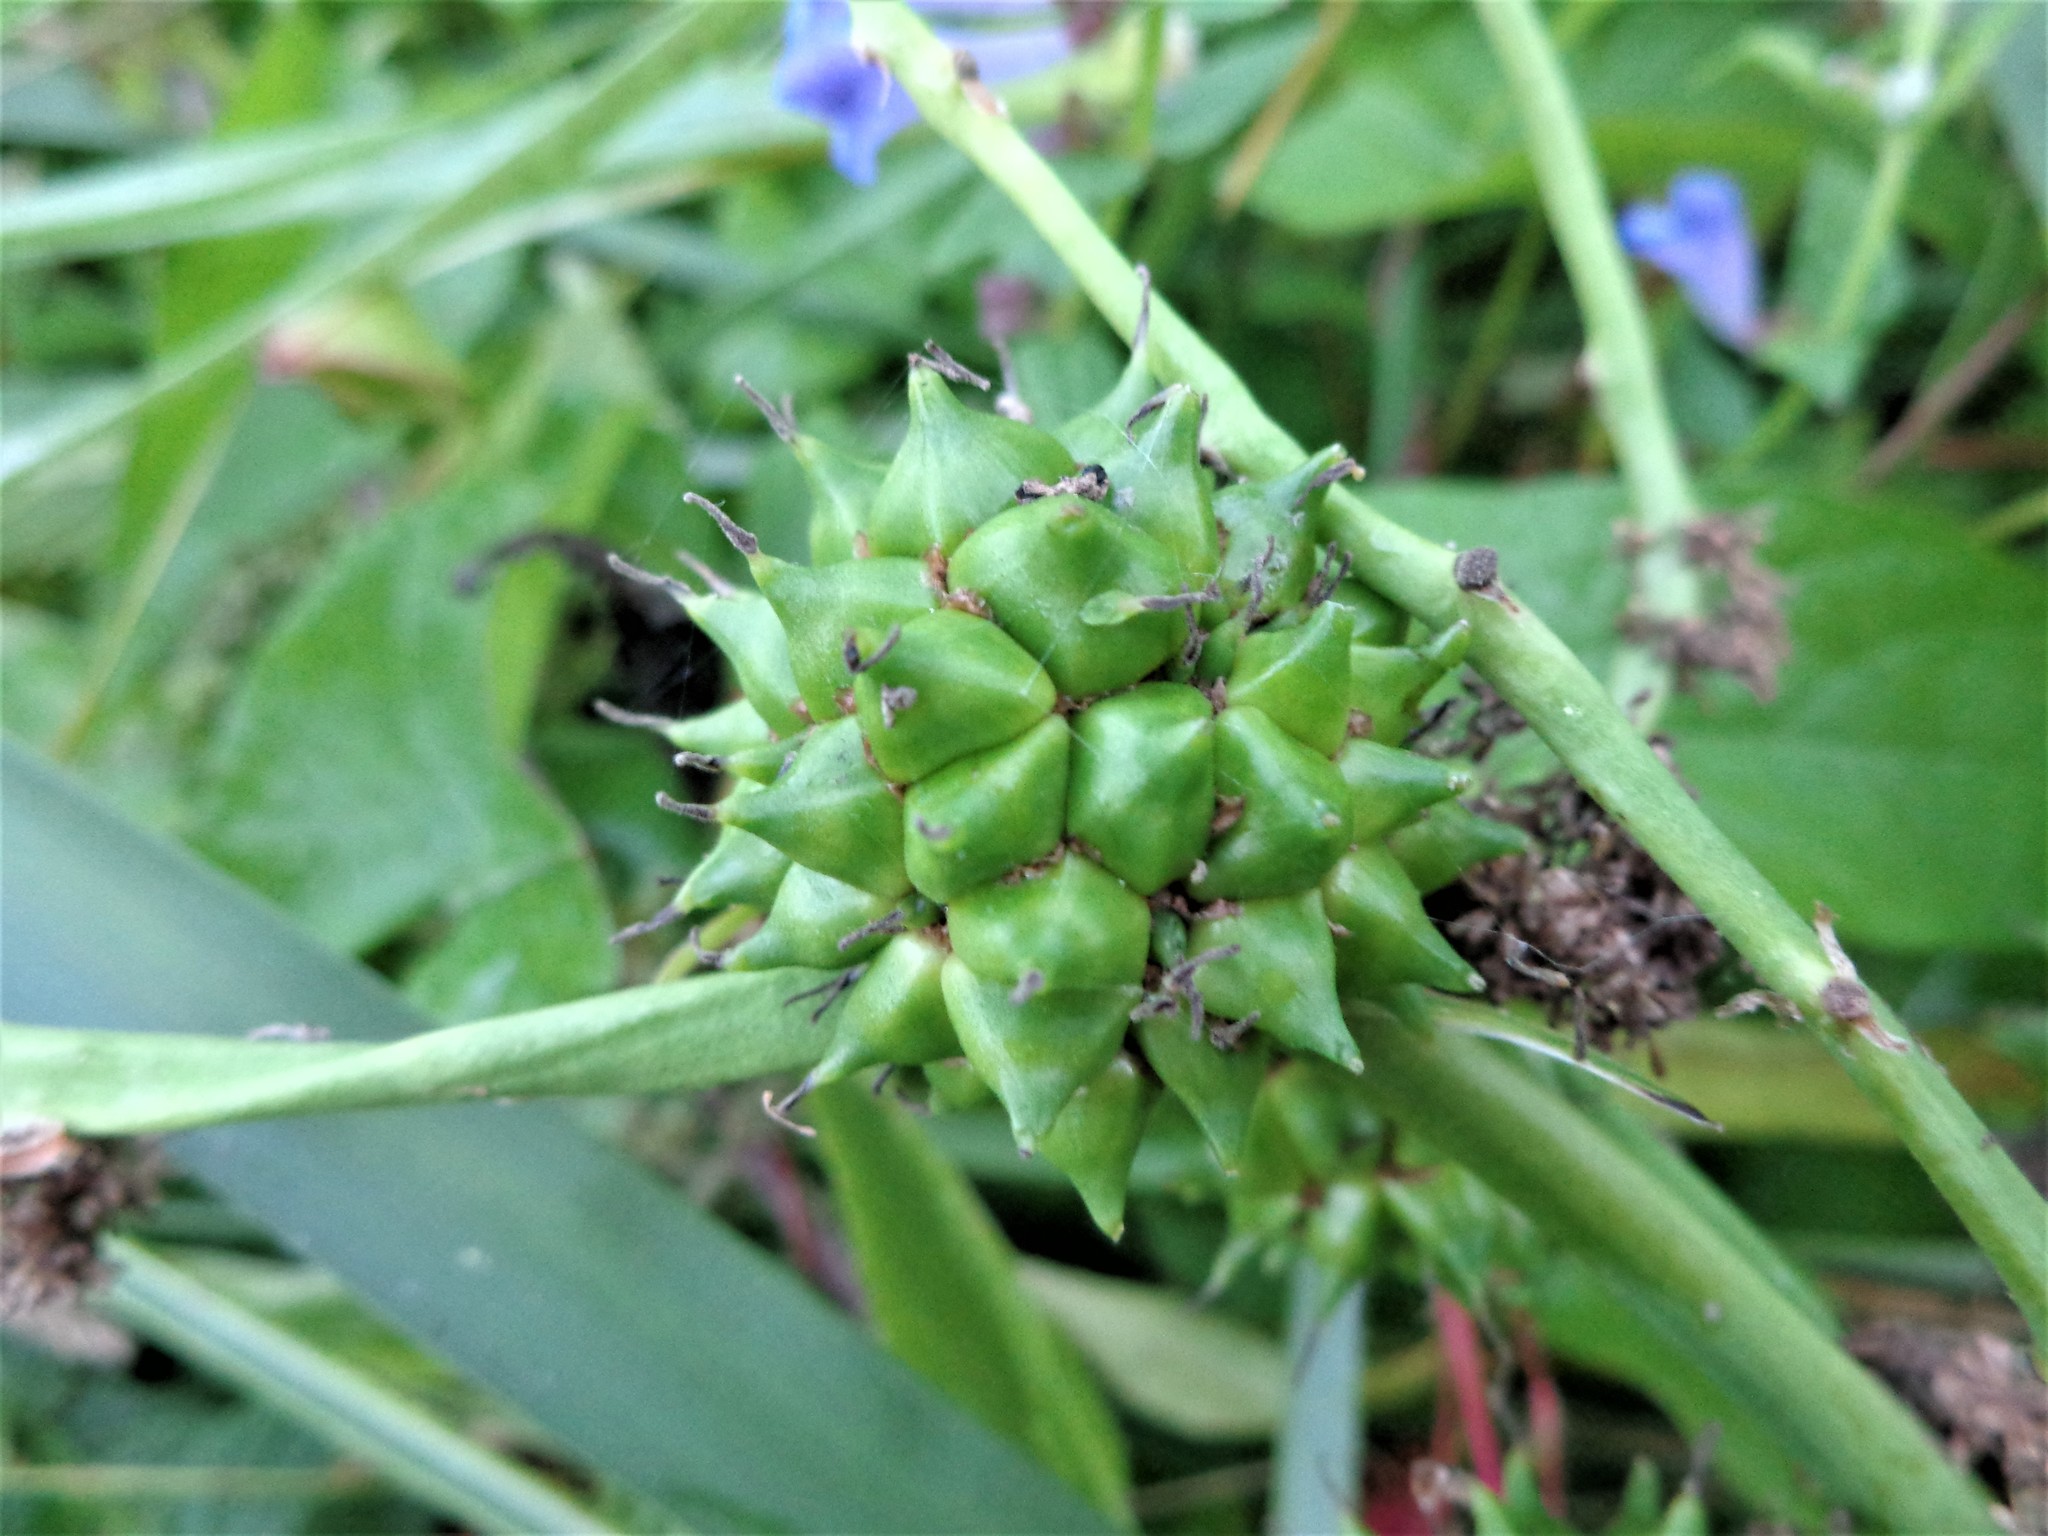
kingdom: Plantae
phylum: Tracheophyta
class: Liliopsida
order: Poales
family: Typhaceae
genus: Sparganium
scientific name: Sparganium erectum
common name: Branched bur-reed
